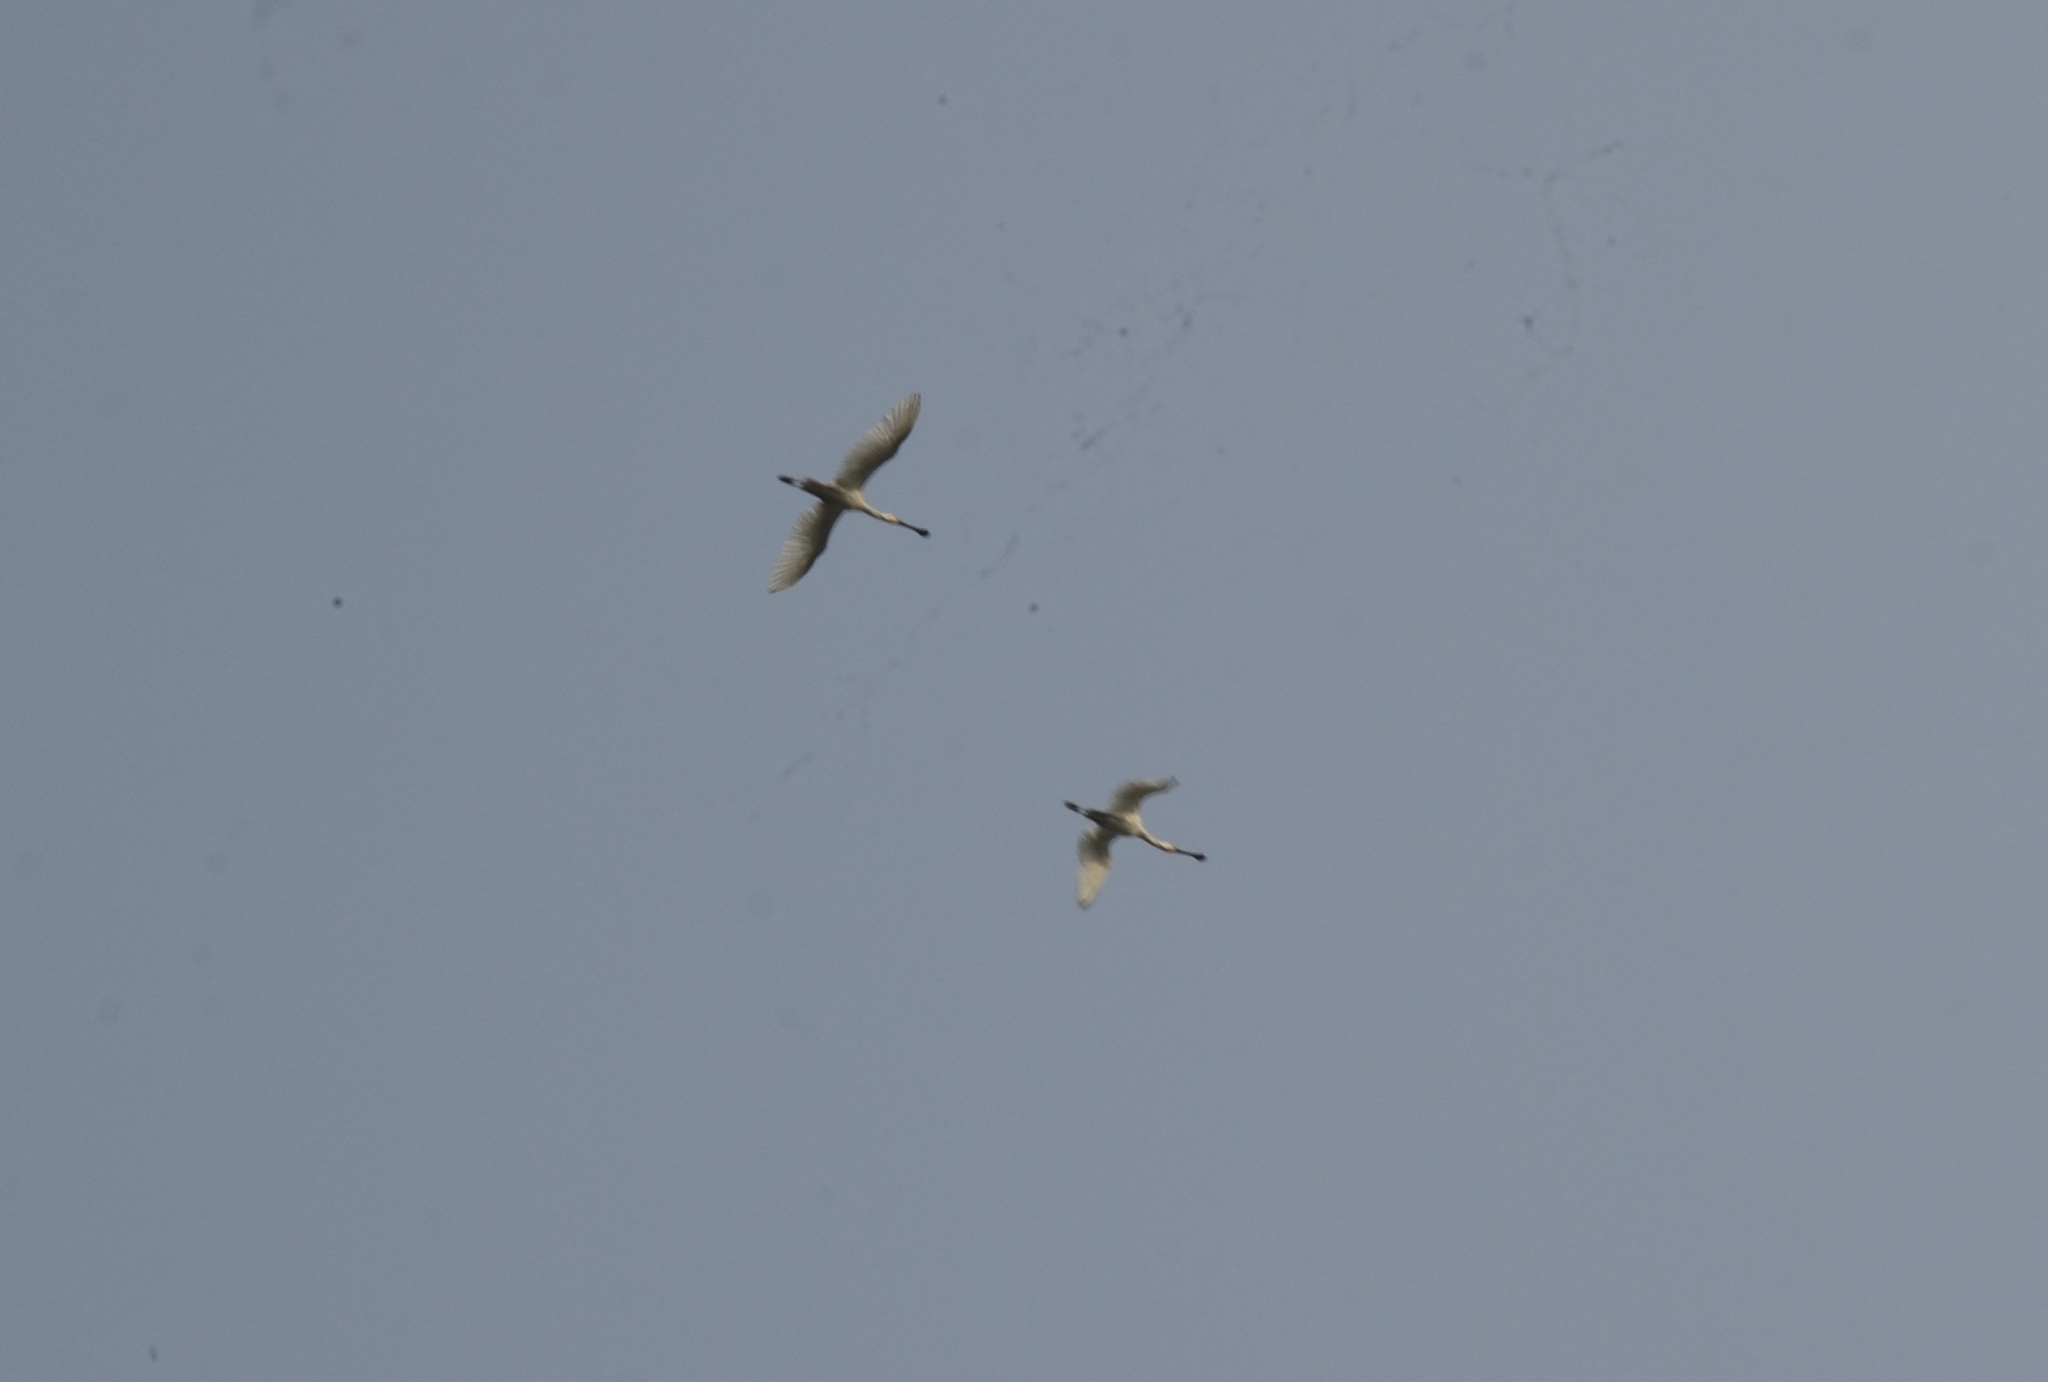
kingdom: Animalia
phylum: Chordata
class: Aves
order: Pelecaniformes
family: Threskiornithidae
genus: Platalea
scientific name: Platalea leucorodia
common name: Eurasian spoonbill
